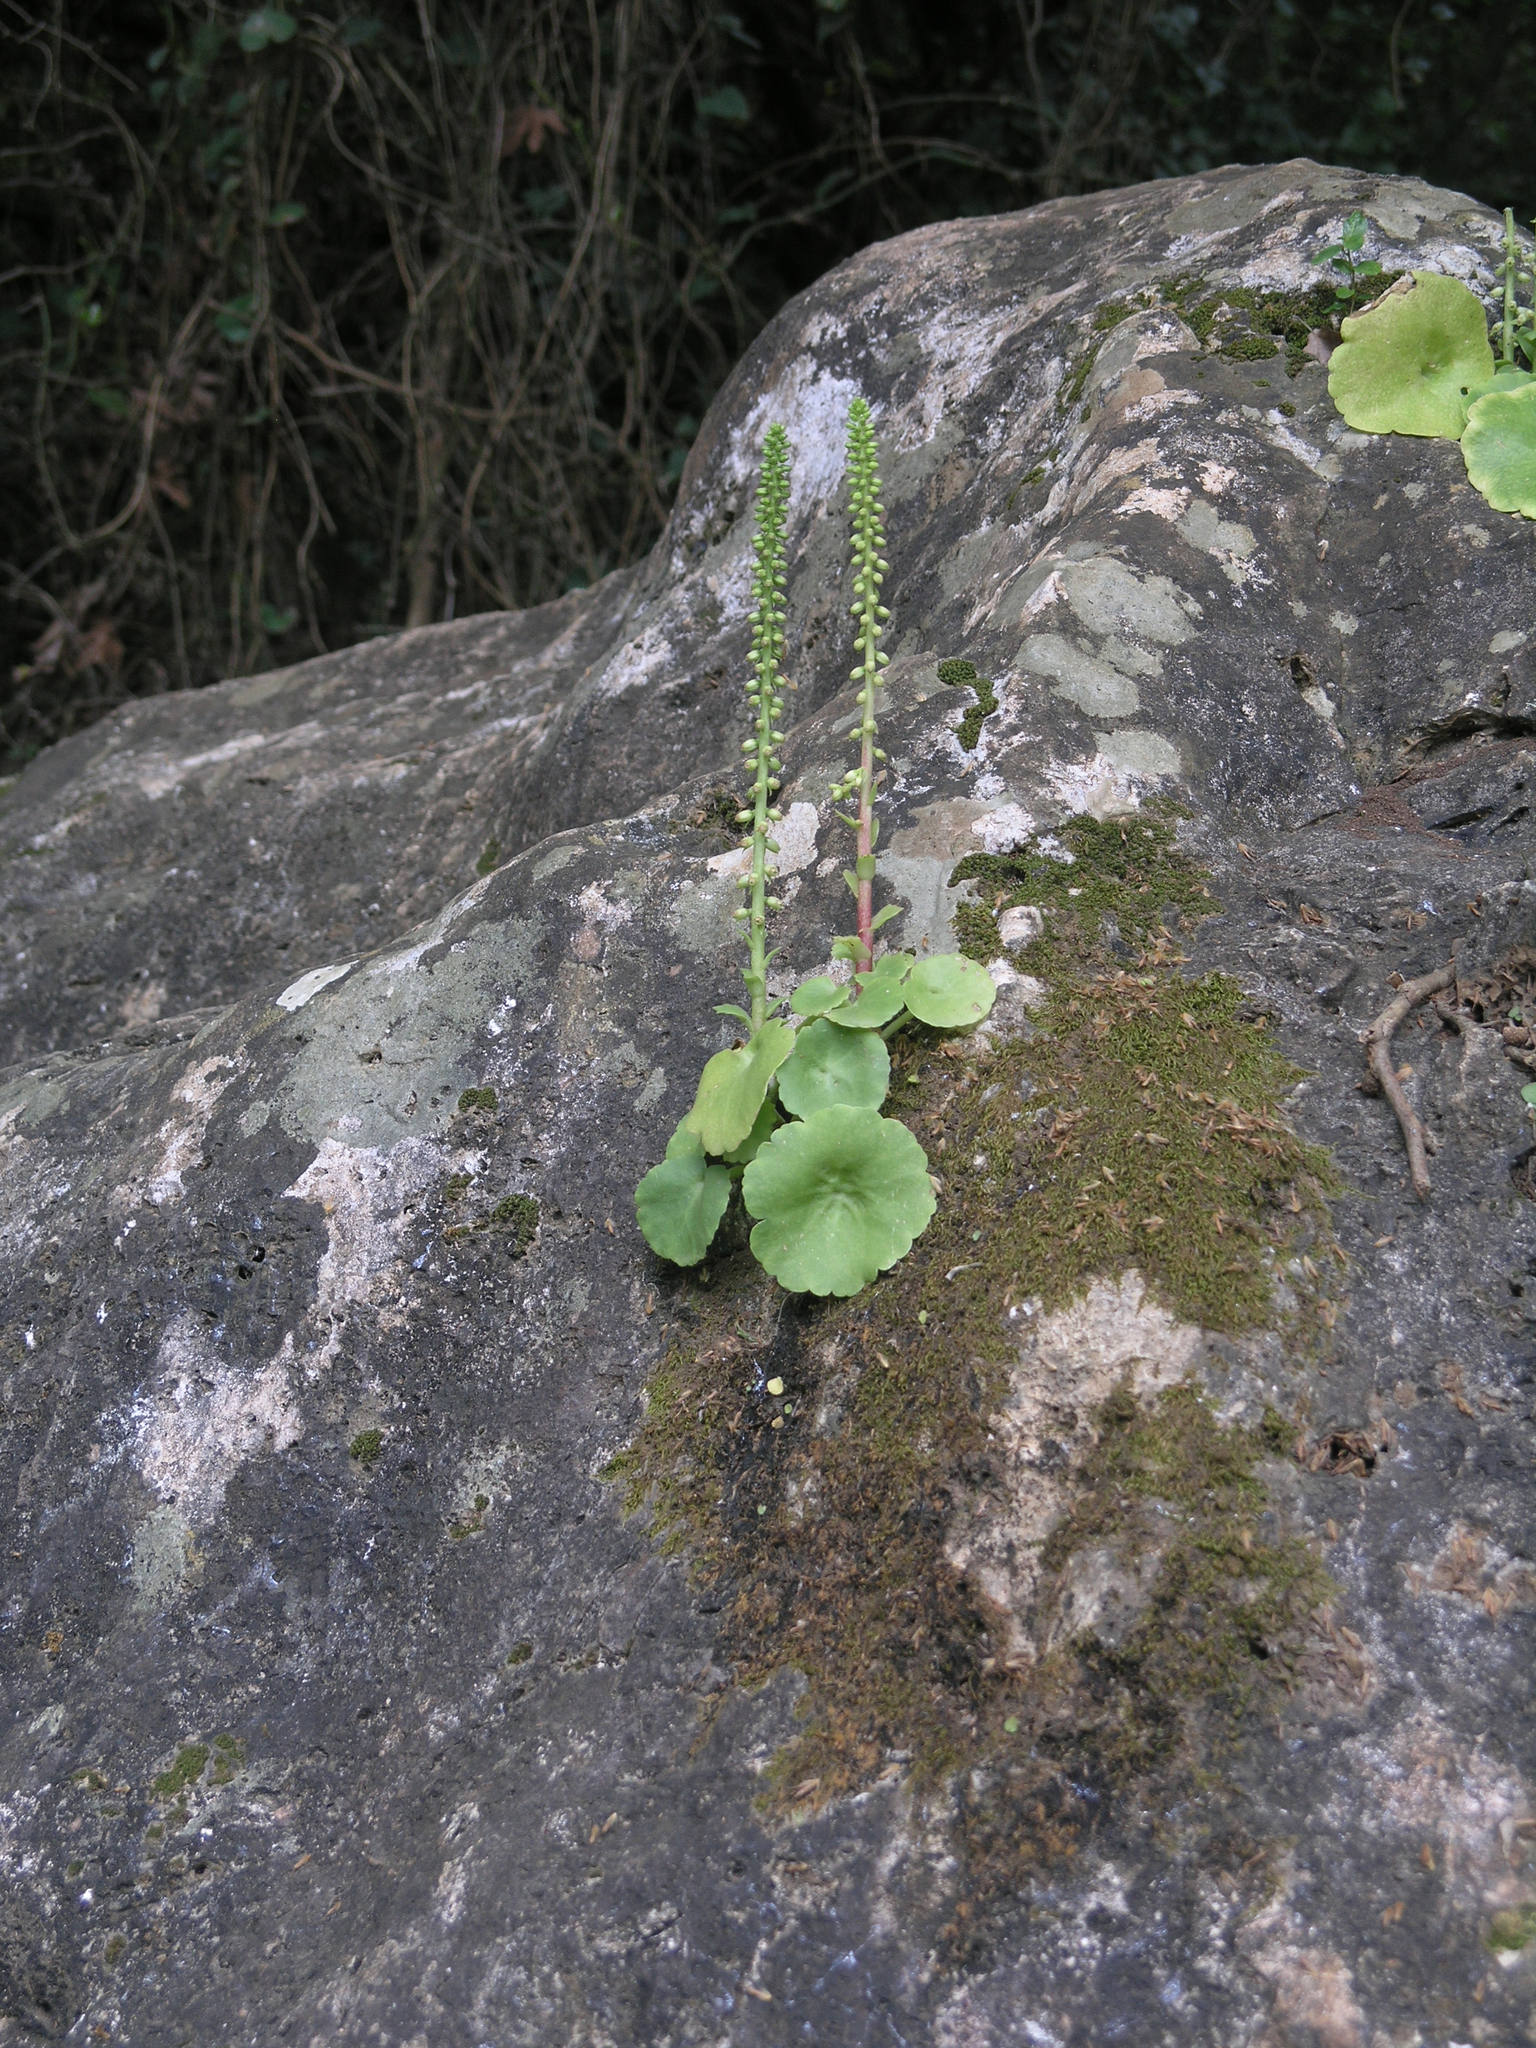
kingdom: Plantae
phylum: Tracheophyta
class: Magnoliopsida
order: Saxifragales
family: Crassulaceae
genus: Umbilicus
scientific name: Umbilicus horizontalis
